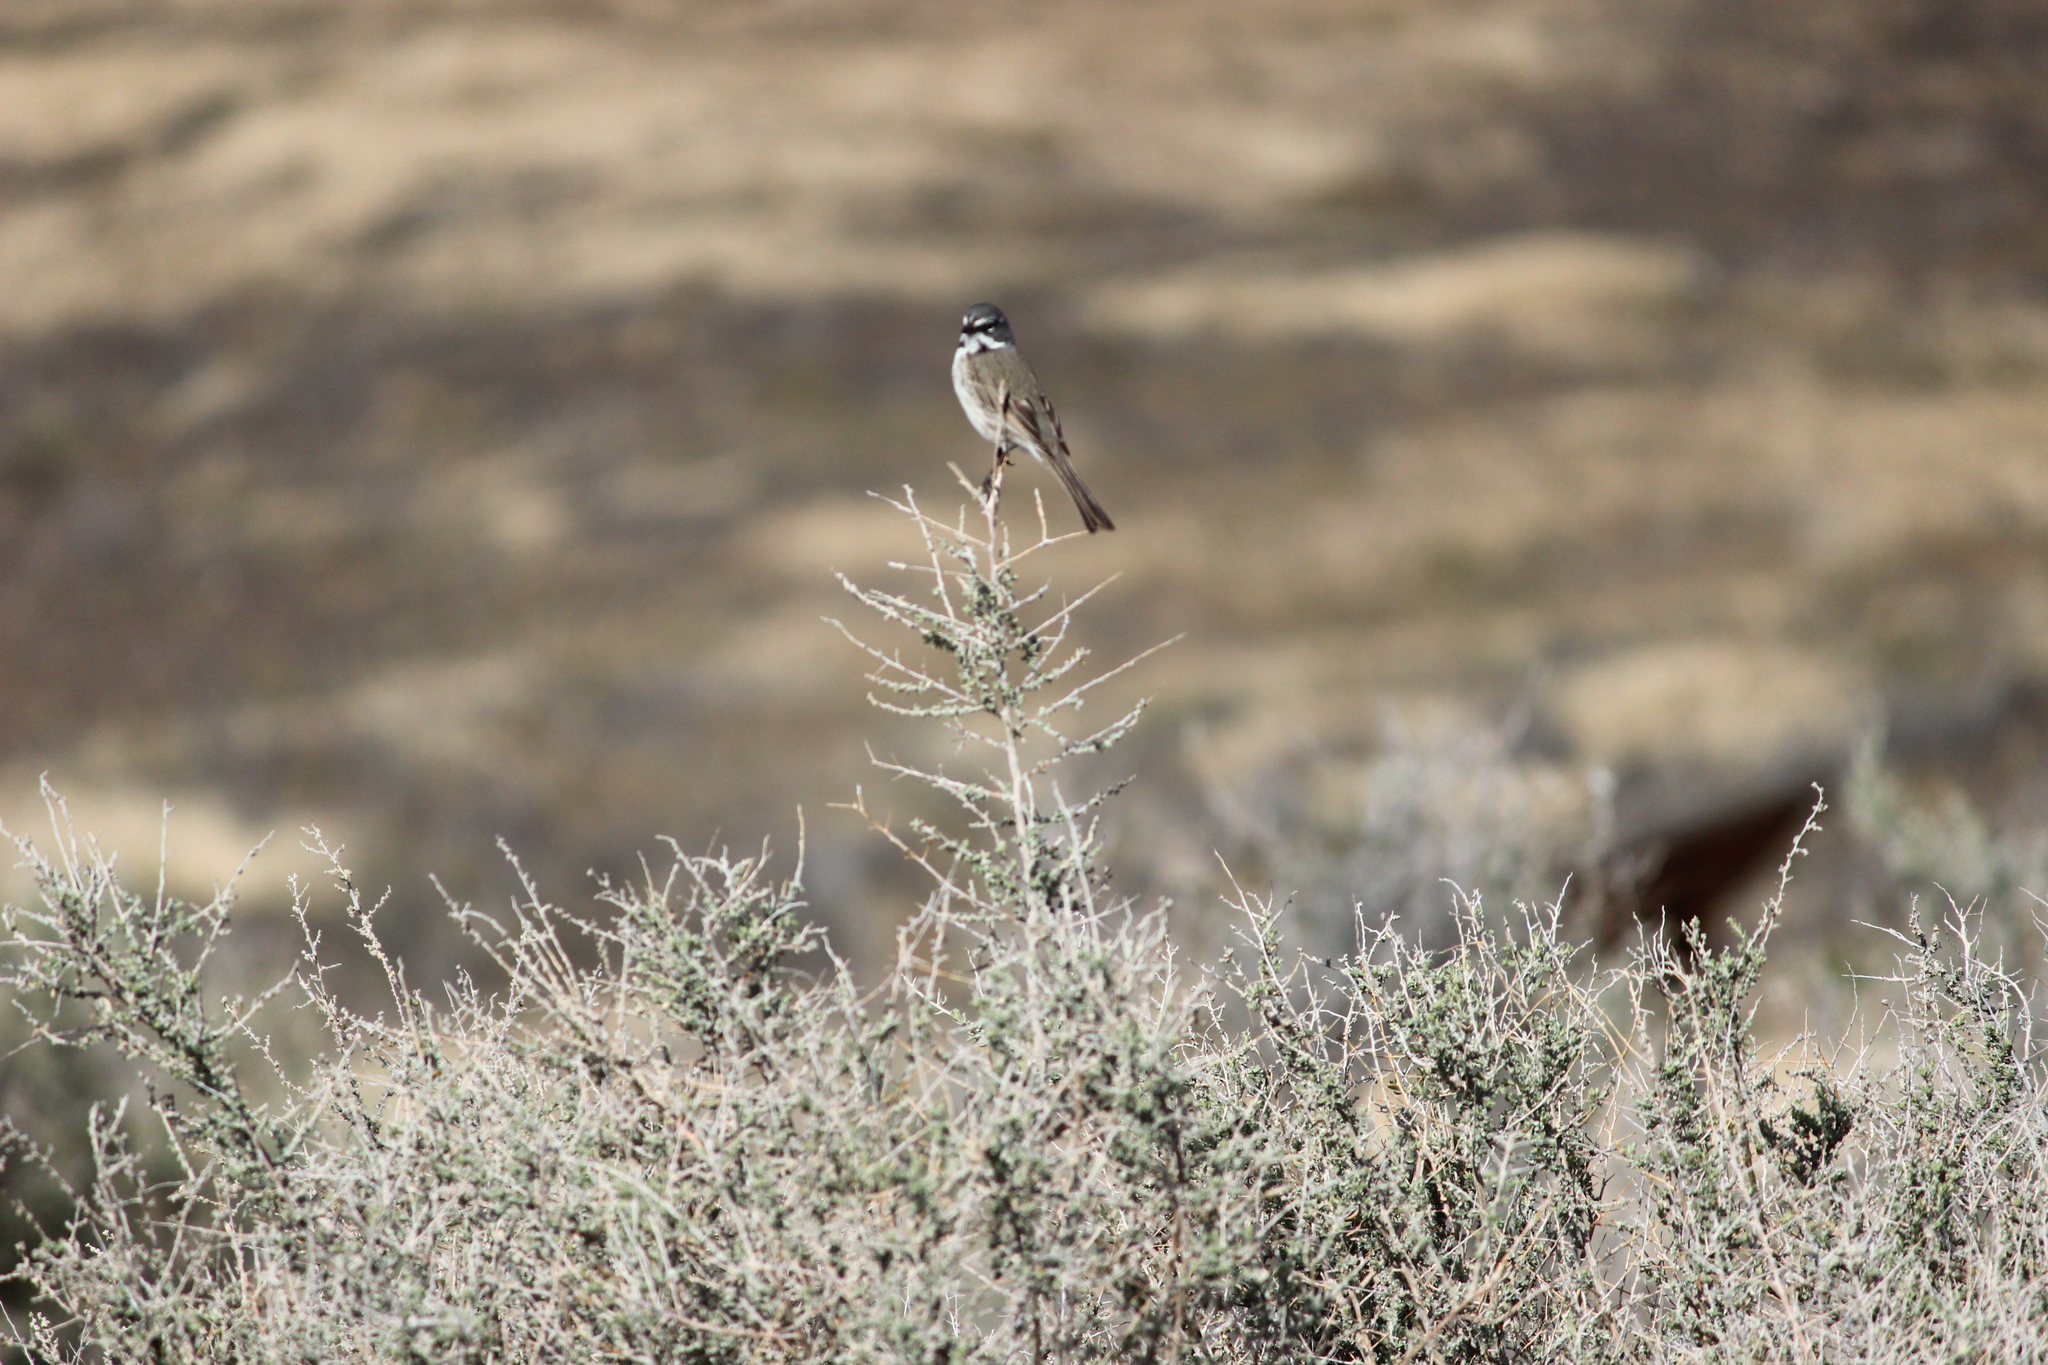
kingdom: Animalia
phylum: Chordata
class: Aves
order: Passeriformes
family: Passerellidae
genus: Artemisiospiza
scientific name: Artemisiospiza belli
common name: Bell's sparrow
